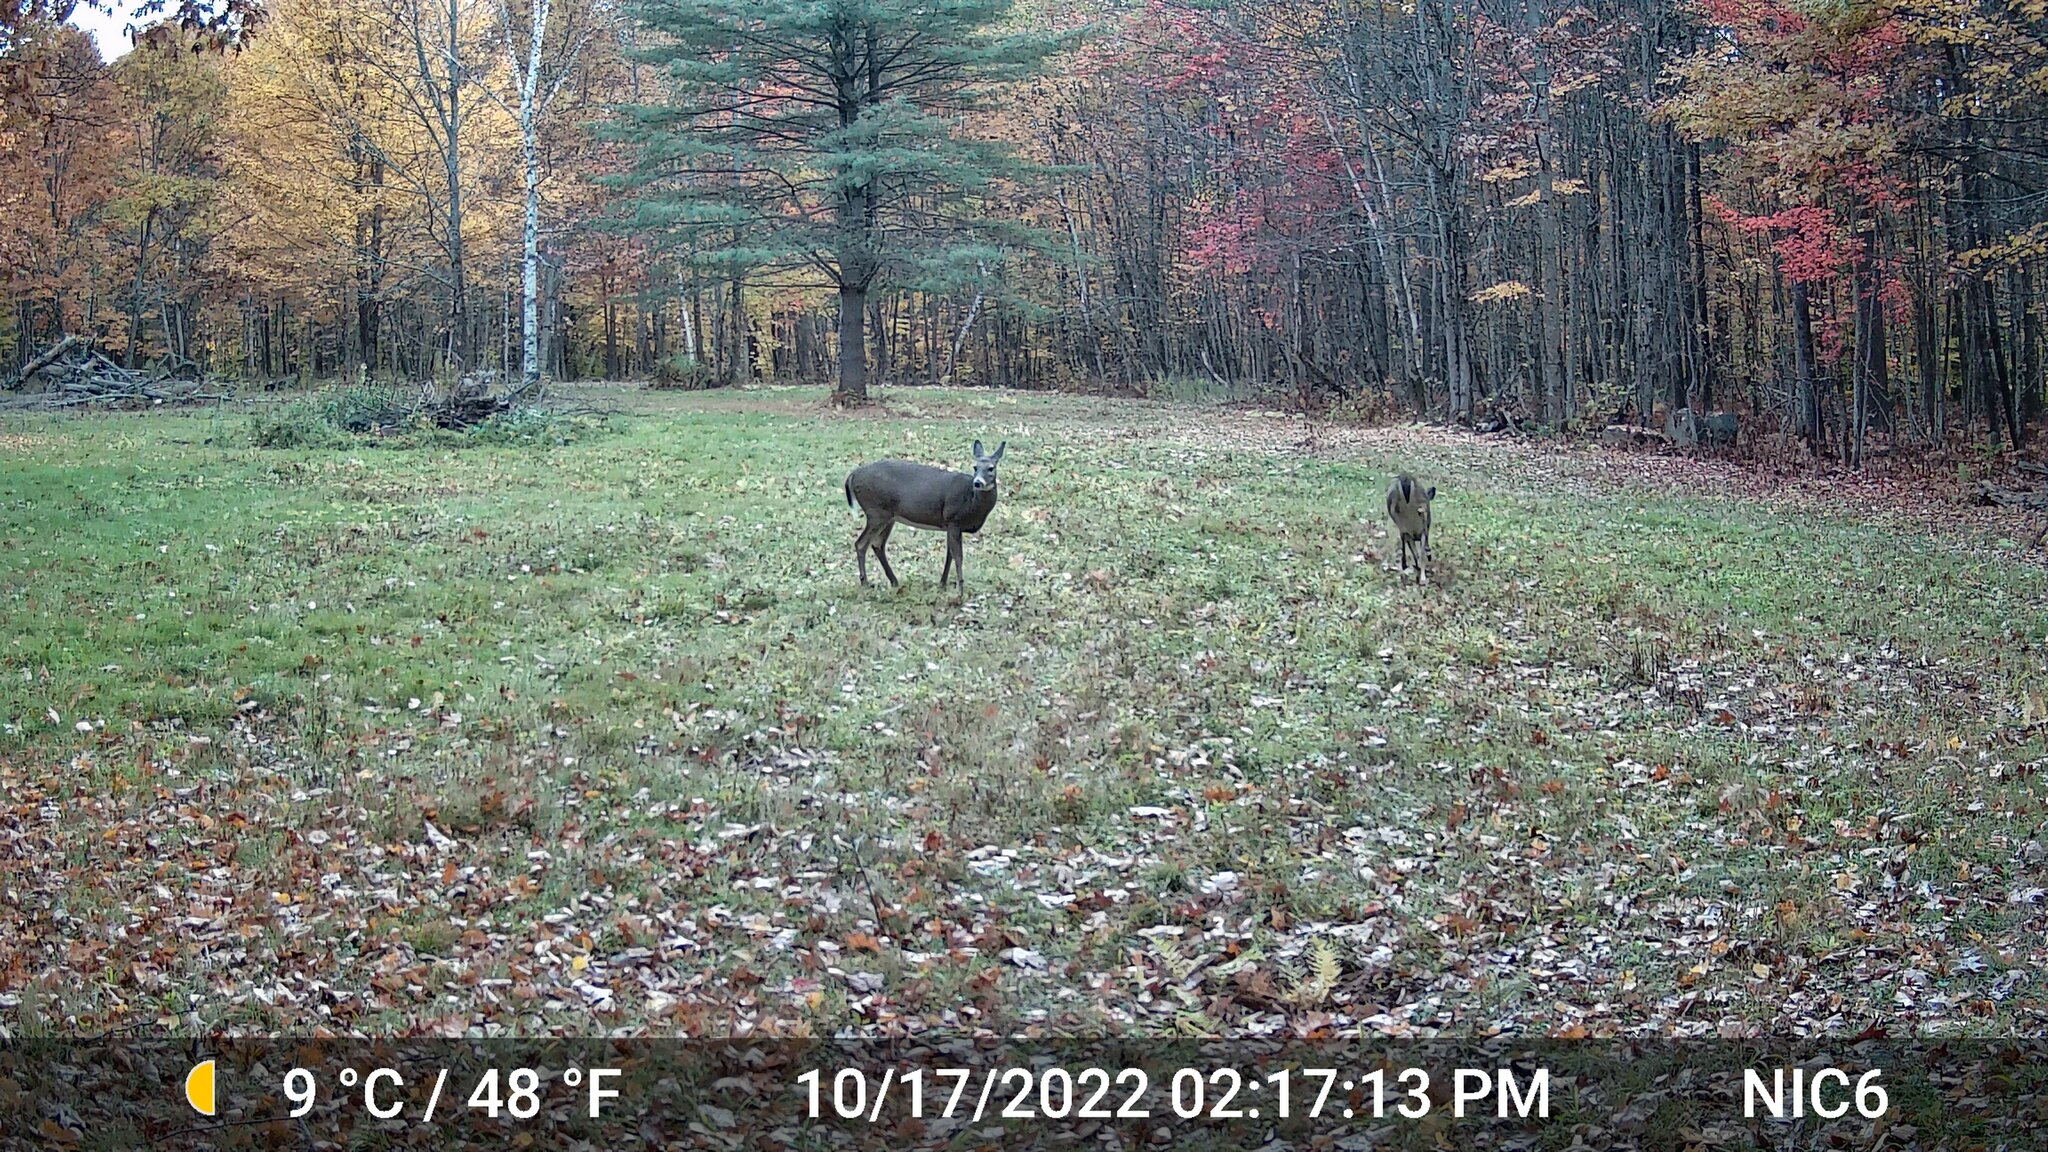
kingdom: Animalia
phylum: Chordata
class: Mammalia
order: Artiodactyla
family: Cervidae
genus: Odocoileus
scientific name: Odocoileus virginianus
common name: White-tailed deer
